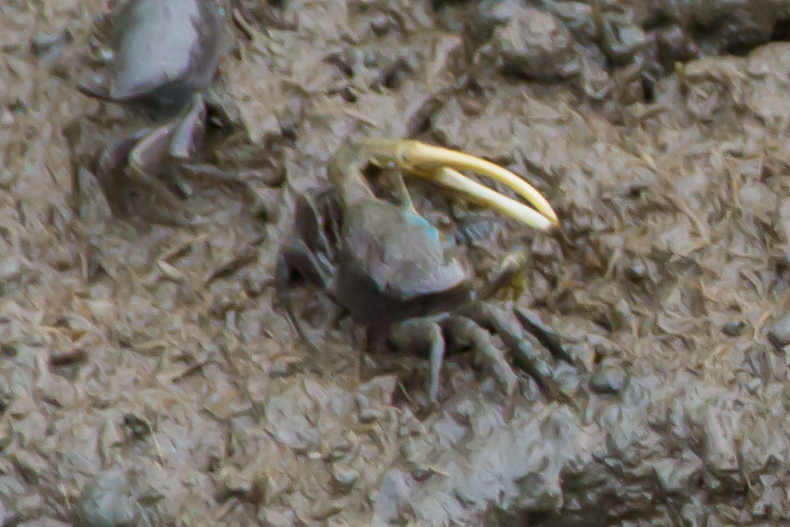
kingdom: Animalia
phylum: Arthropoda
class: Malacostraca
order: Decapoda
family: Ocypodidae
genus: Minuca
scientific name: Minuca pugnax
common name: Mud fiddler crab
